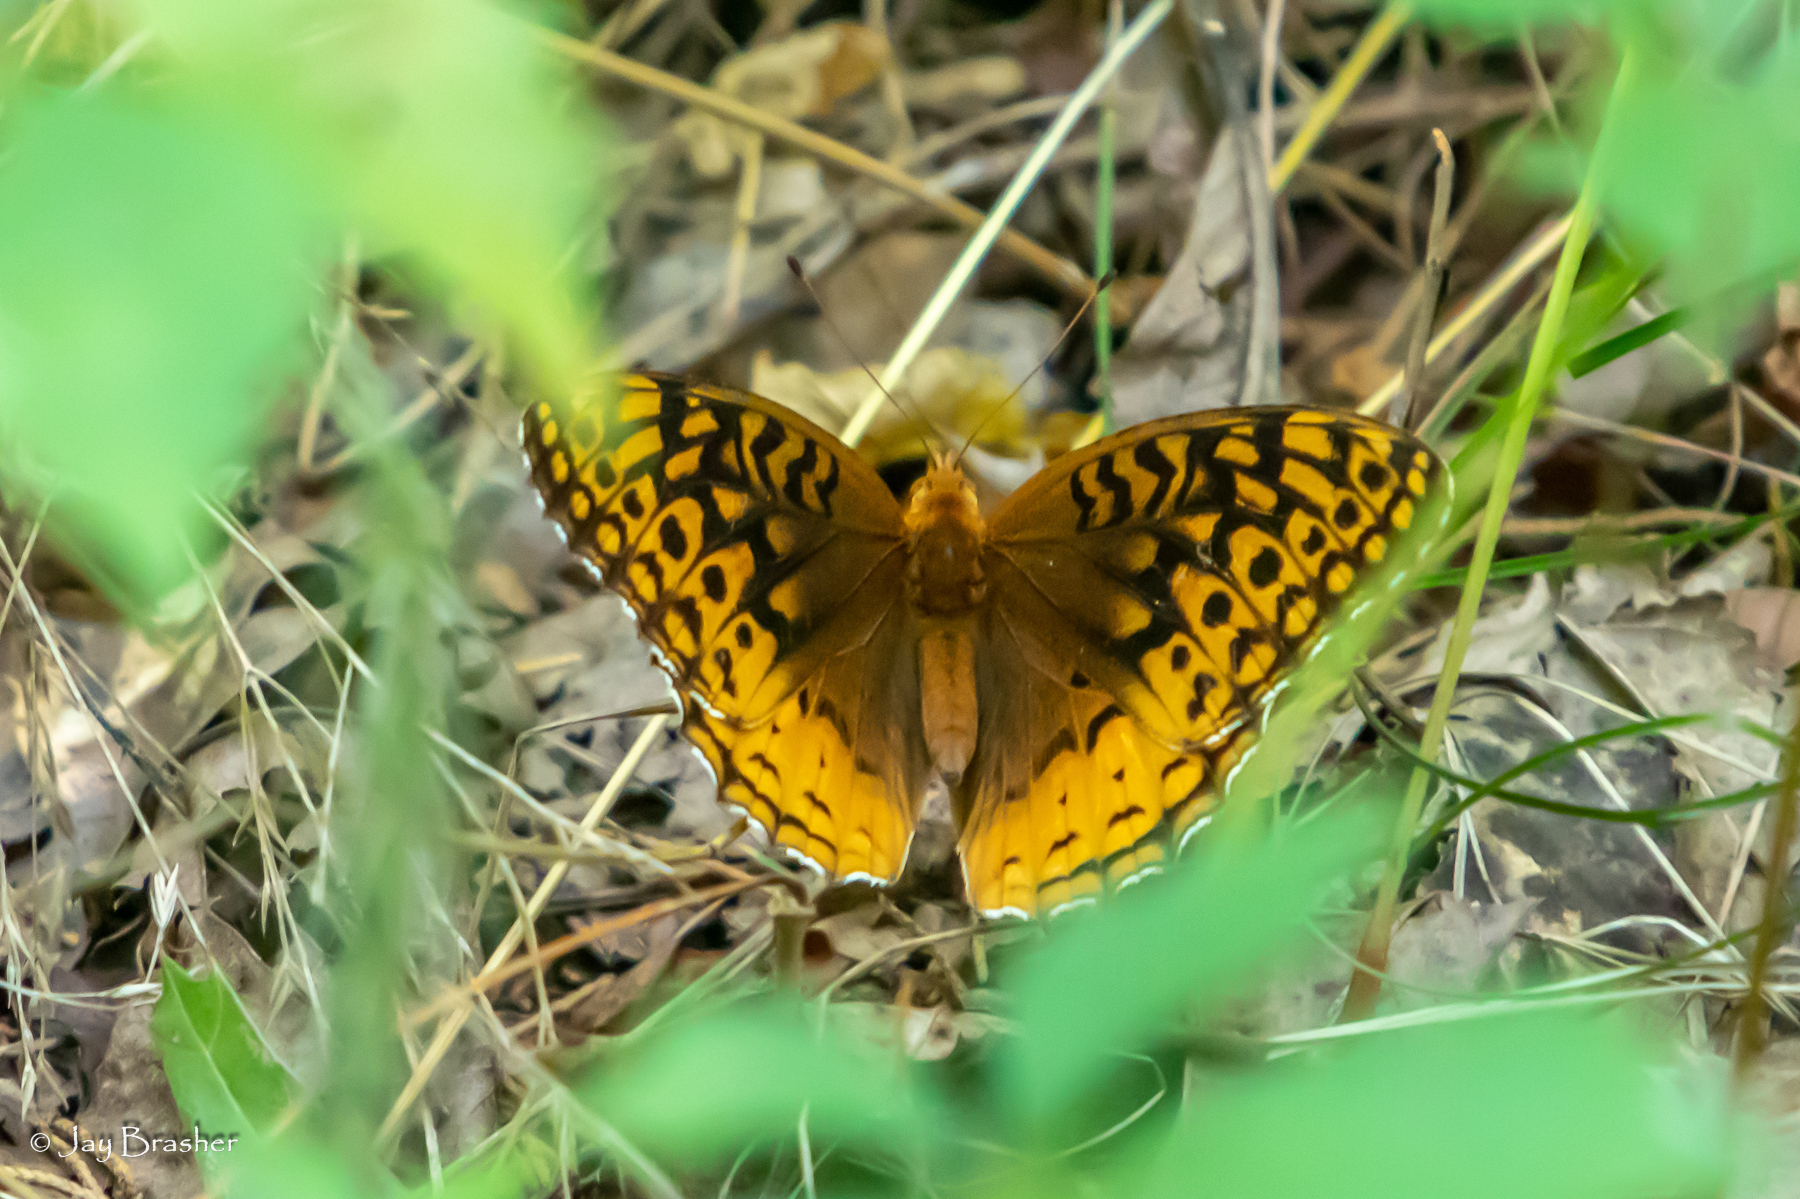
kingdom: Animalia
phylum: Arthropoda
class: Insecta
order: Lepidoptera
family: Nymphalidae
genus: Speyeria
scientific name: Speyeria cybele
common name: Great spangled fritillary
